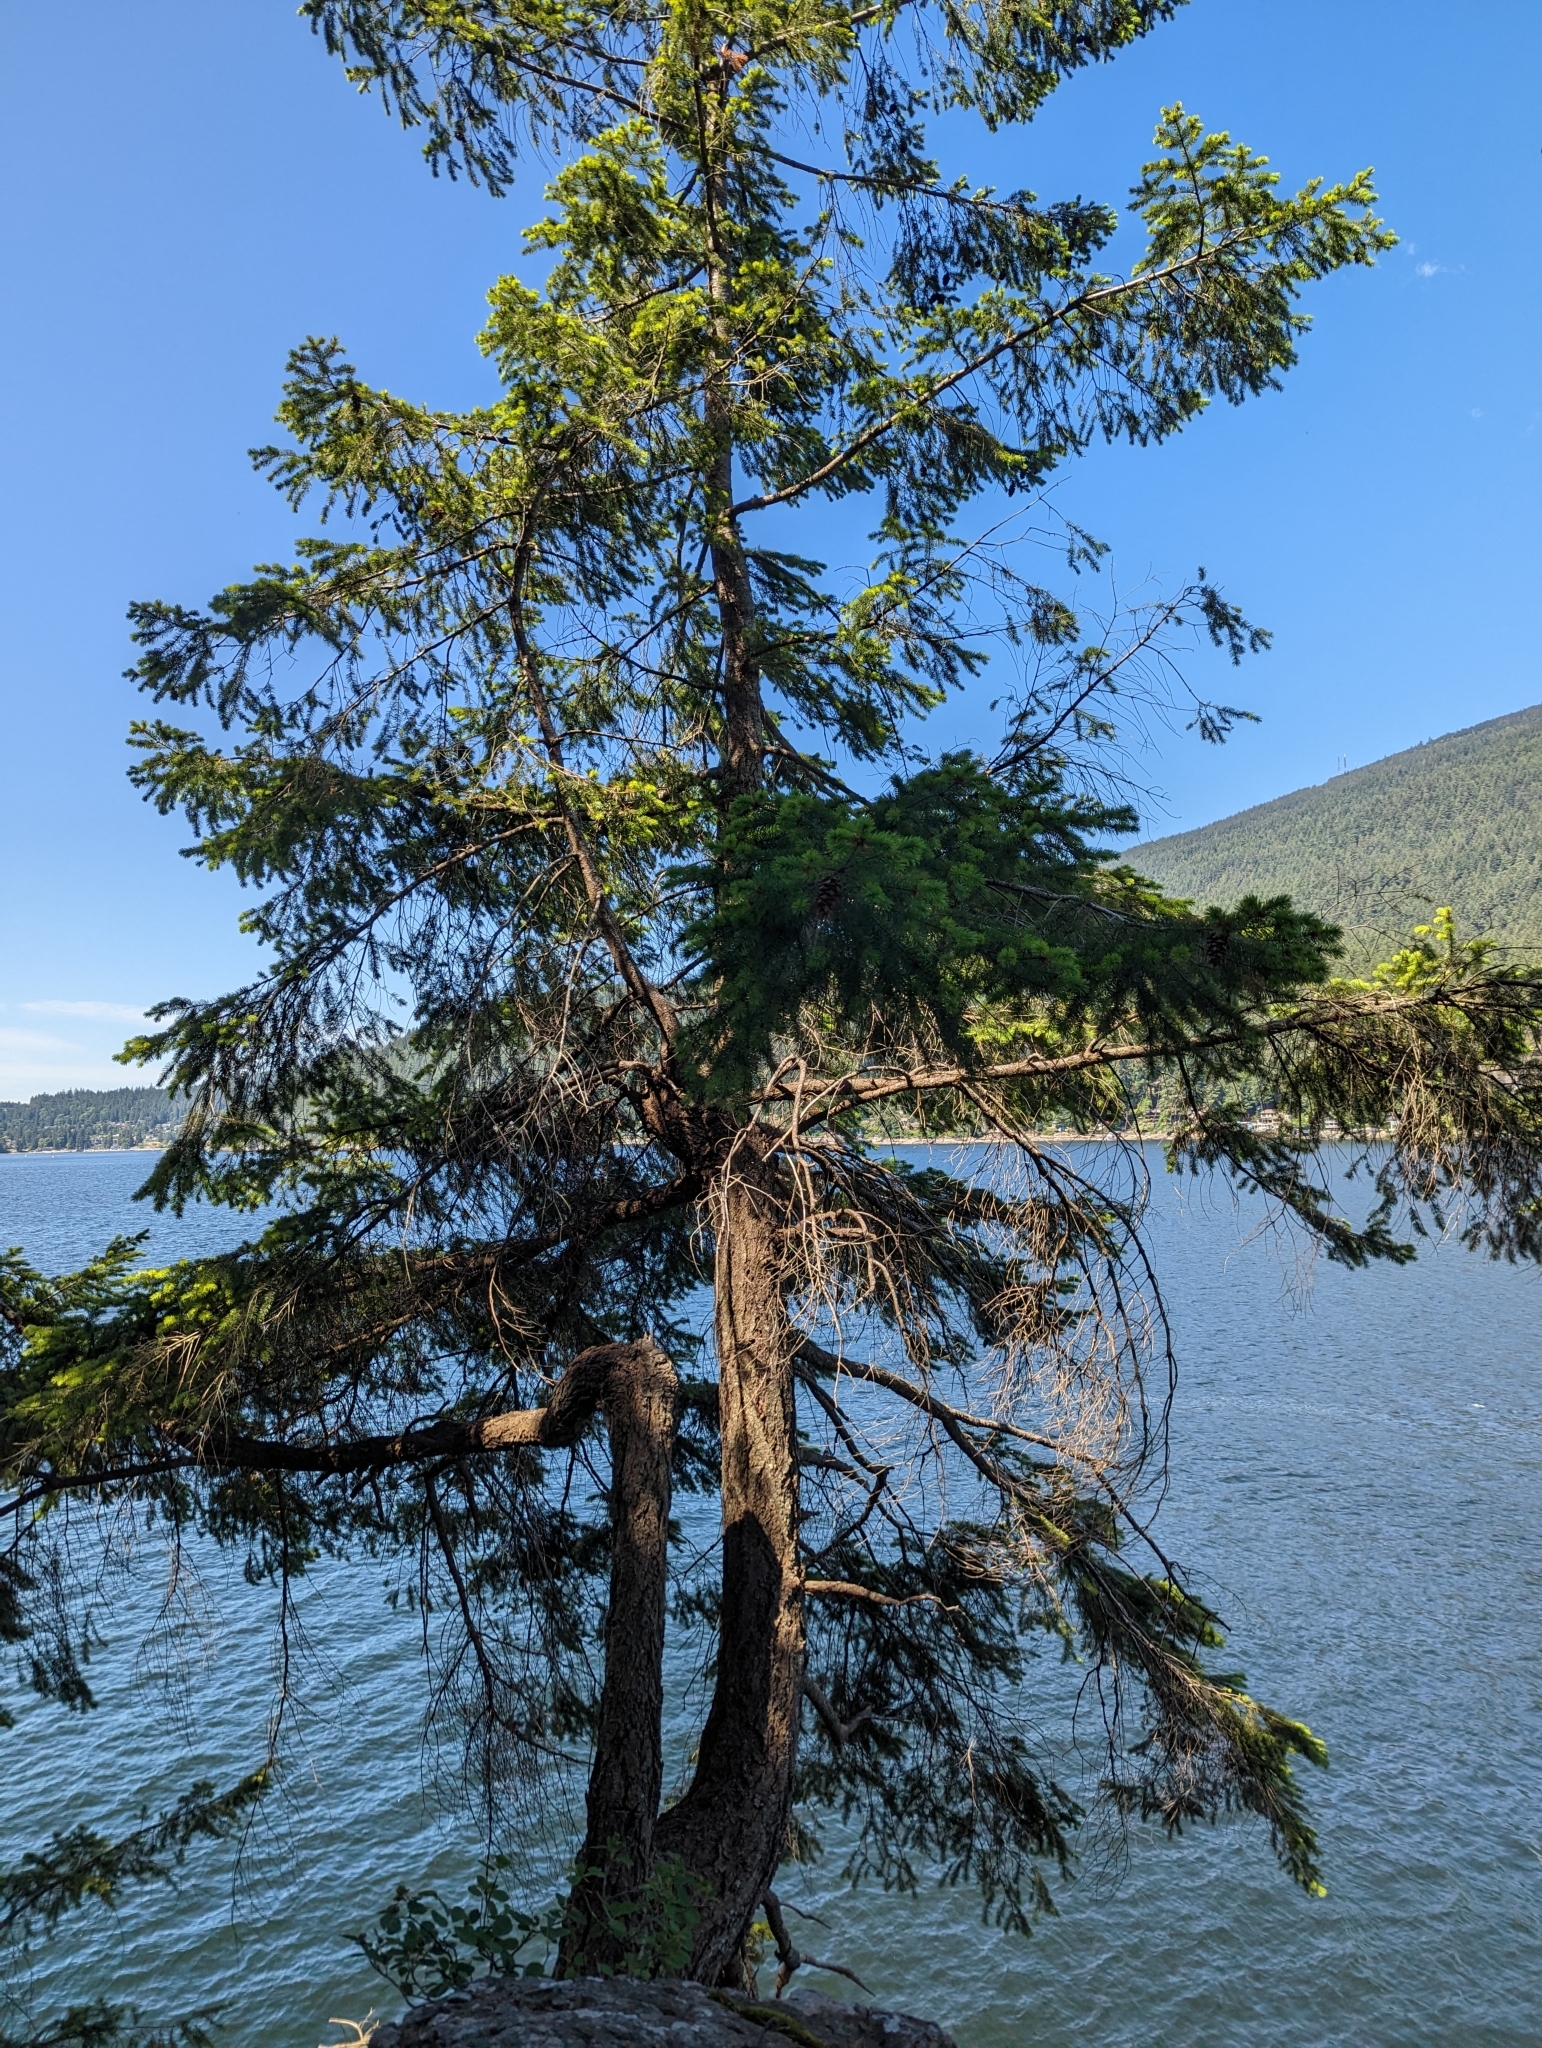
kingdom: Plantae
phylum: Tracheophyta
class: Pinopsida
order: Pinales
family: Pinaceae
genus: Pseudotsuga
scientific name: Pseudotsuga menziesii
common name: Douglas fir
